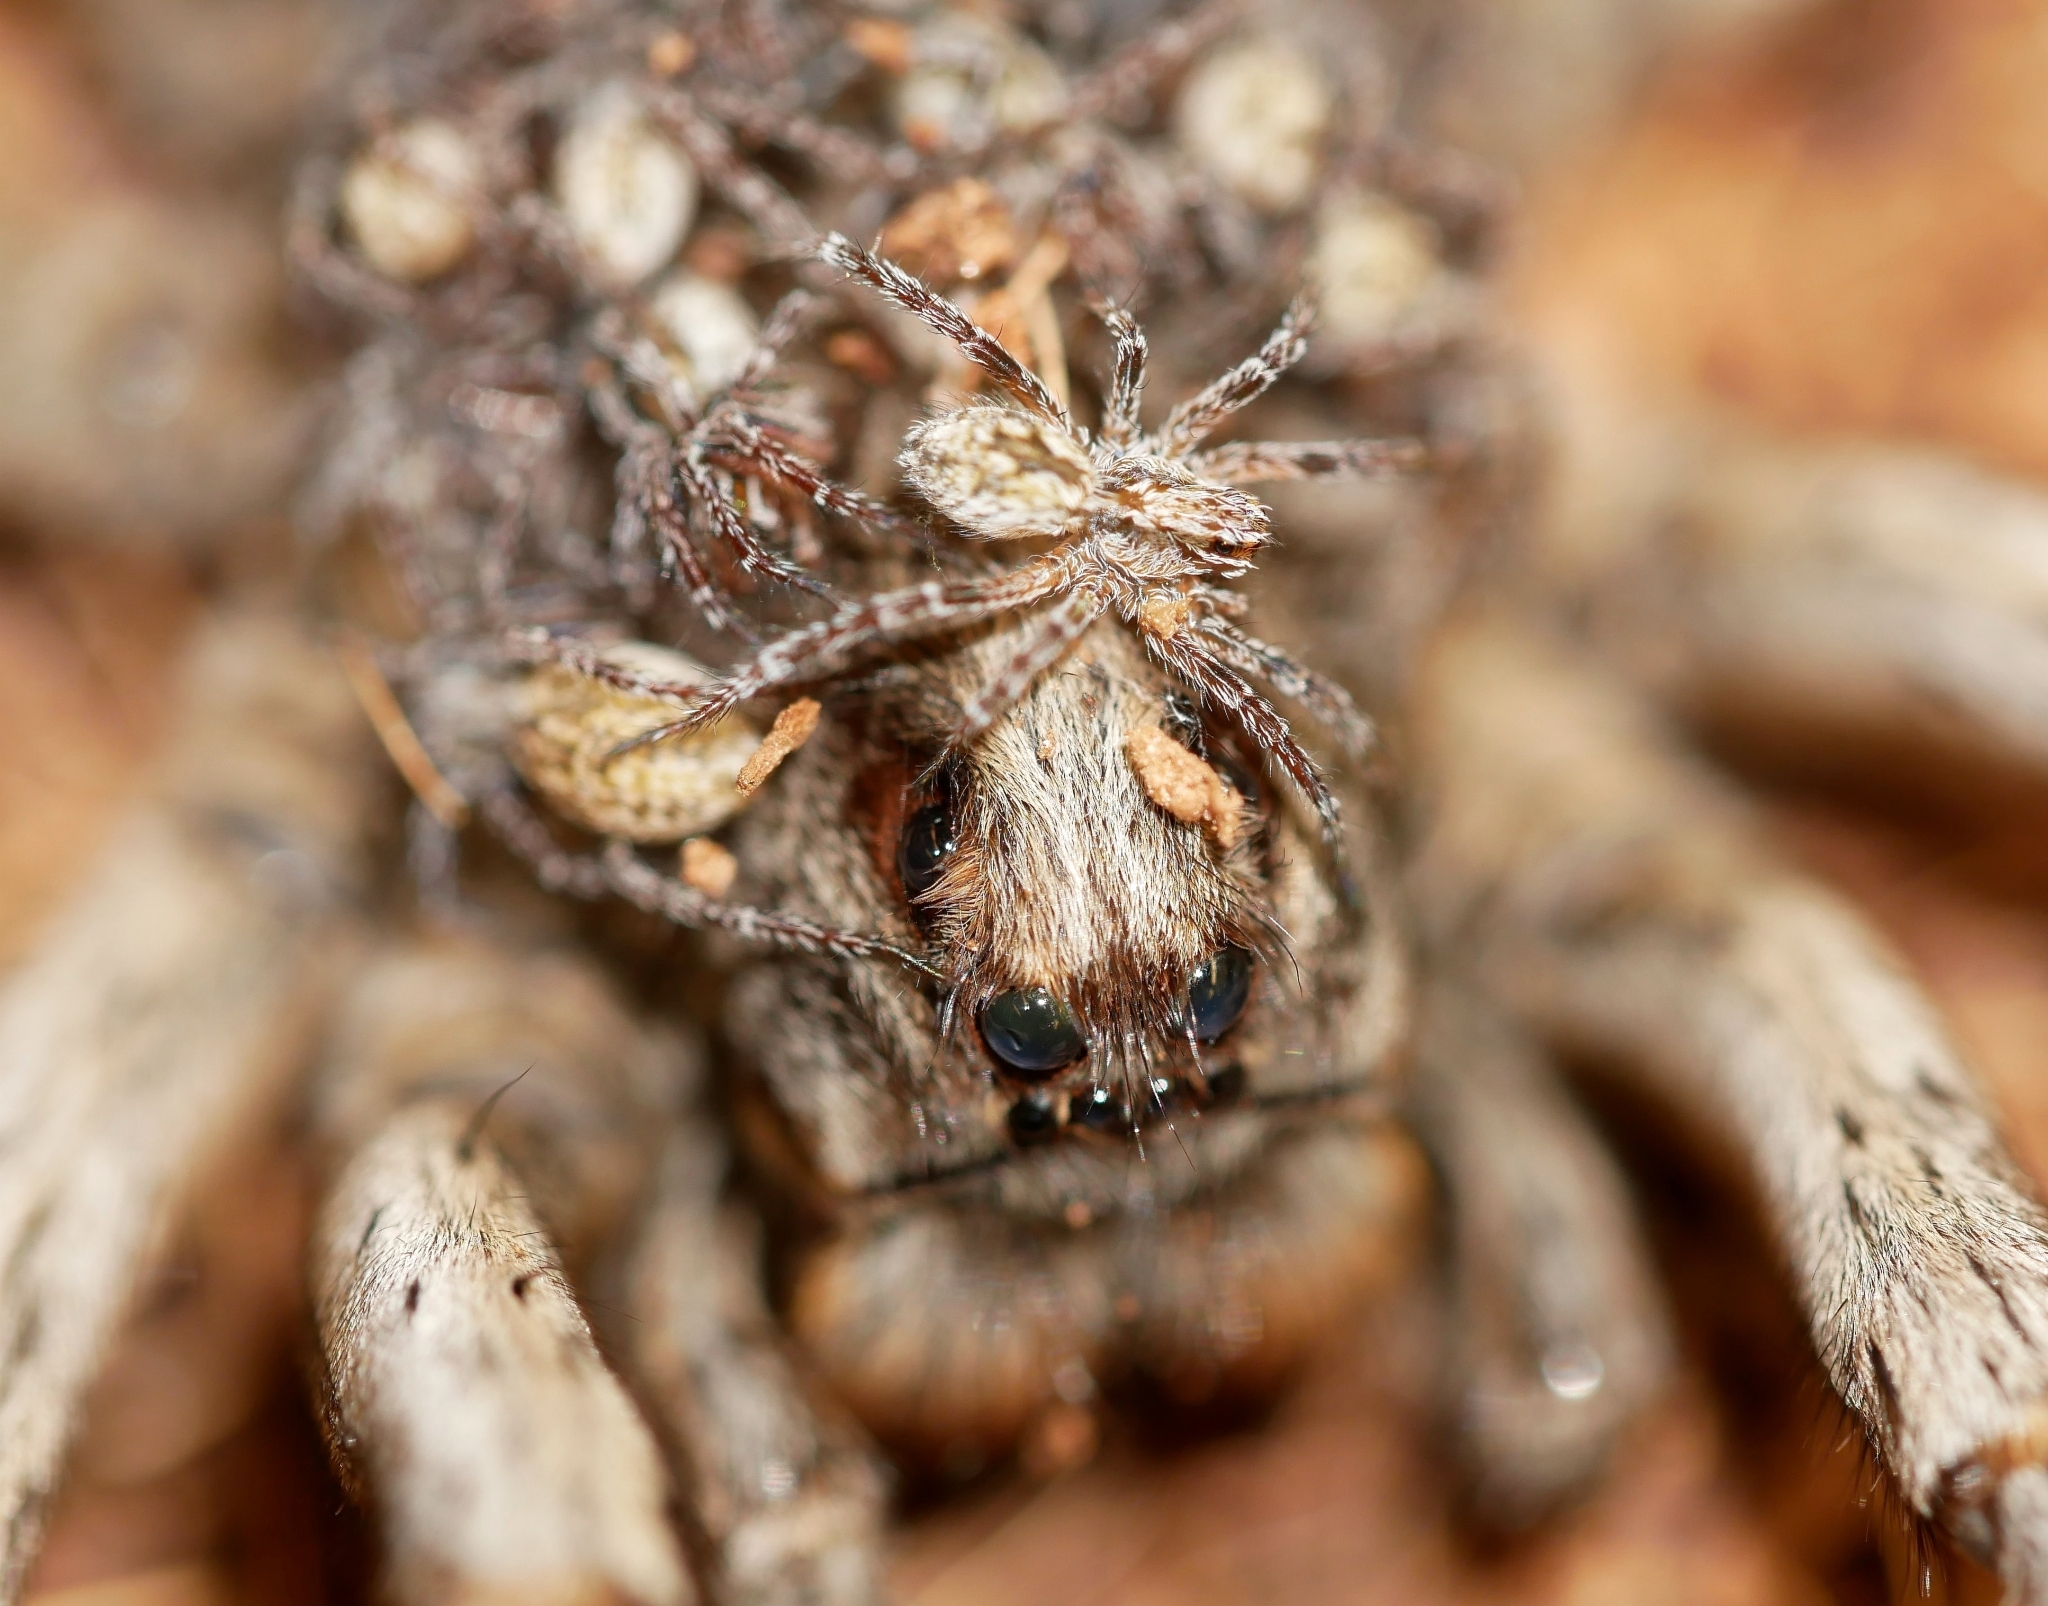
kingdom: Animalia
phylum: Arthropoda
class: Arachnida
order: Araneae
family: Lycosidae
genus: Hogna
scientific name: Hogna carolinensis
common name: Carolina wolf spider
